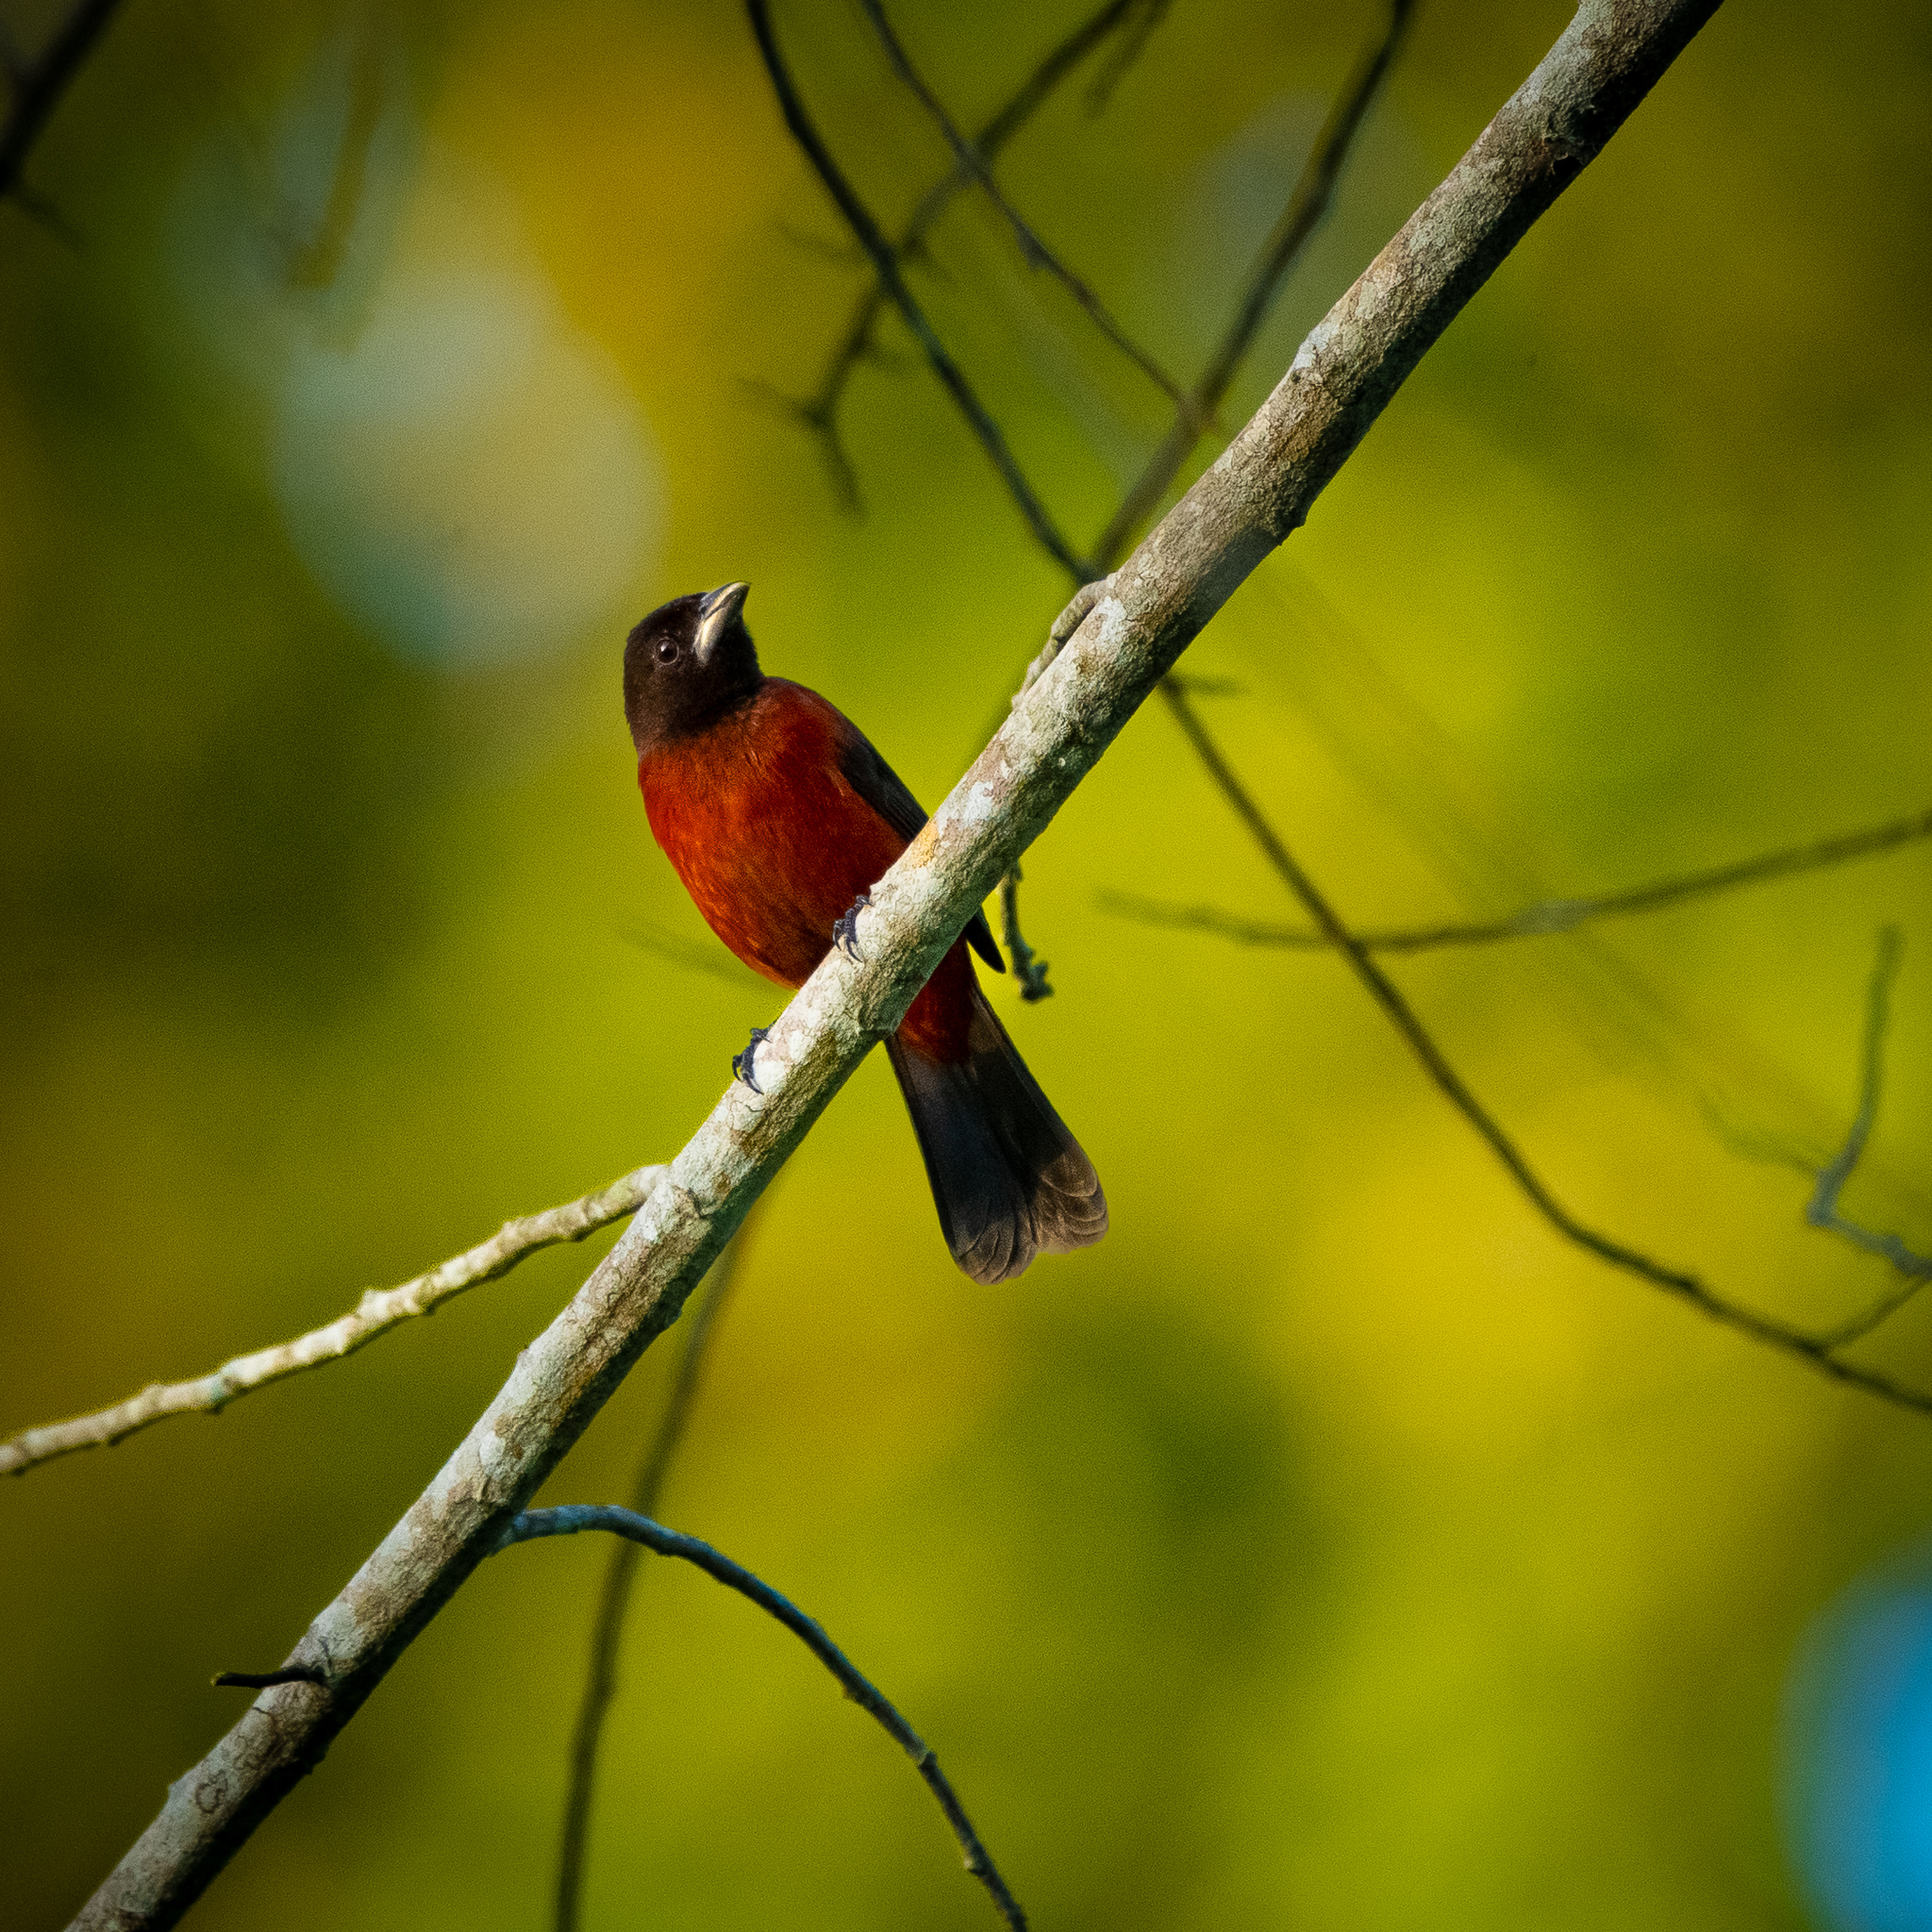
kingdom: Animalia
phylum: Chordata
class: Aves
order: Passeriformes
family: Thraupidae
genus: Ramphocelus
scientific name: Ramphocelus dimidiatus
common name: Crimson-backed tanager
